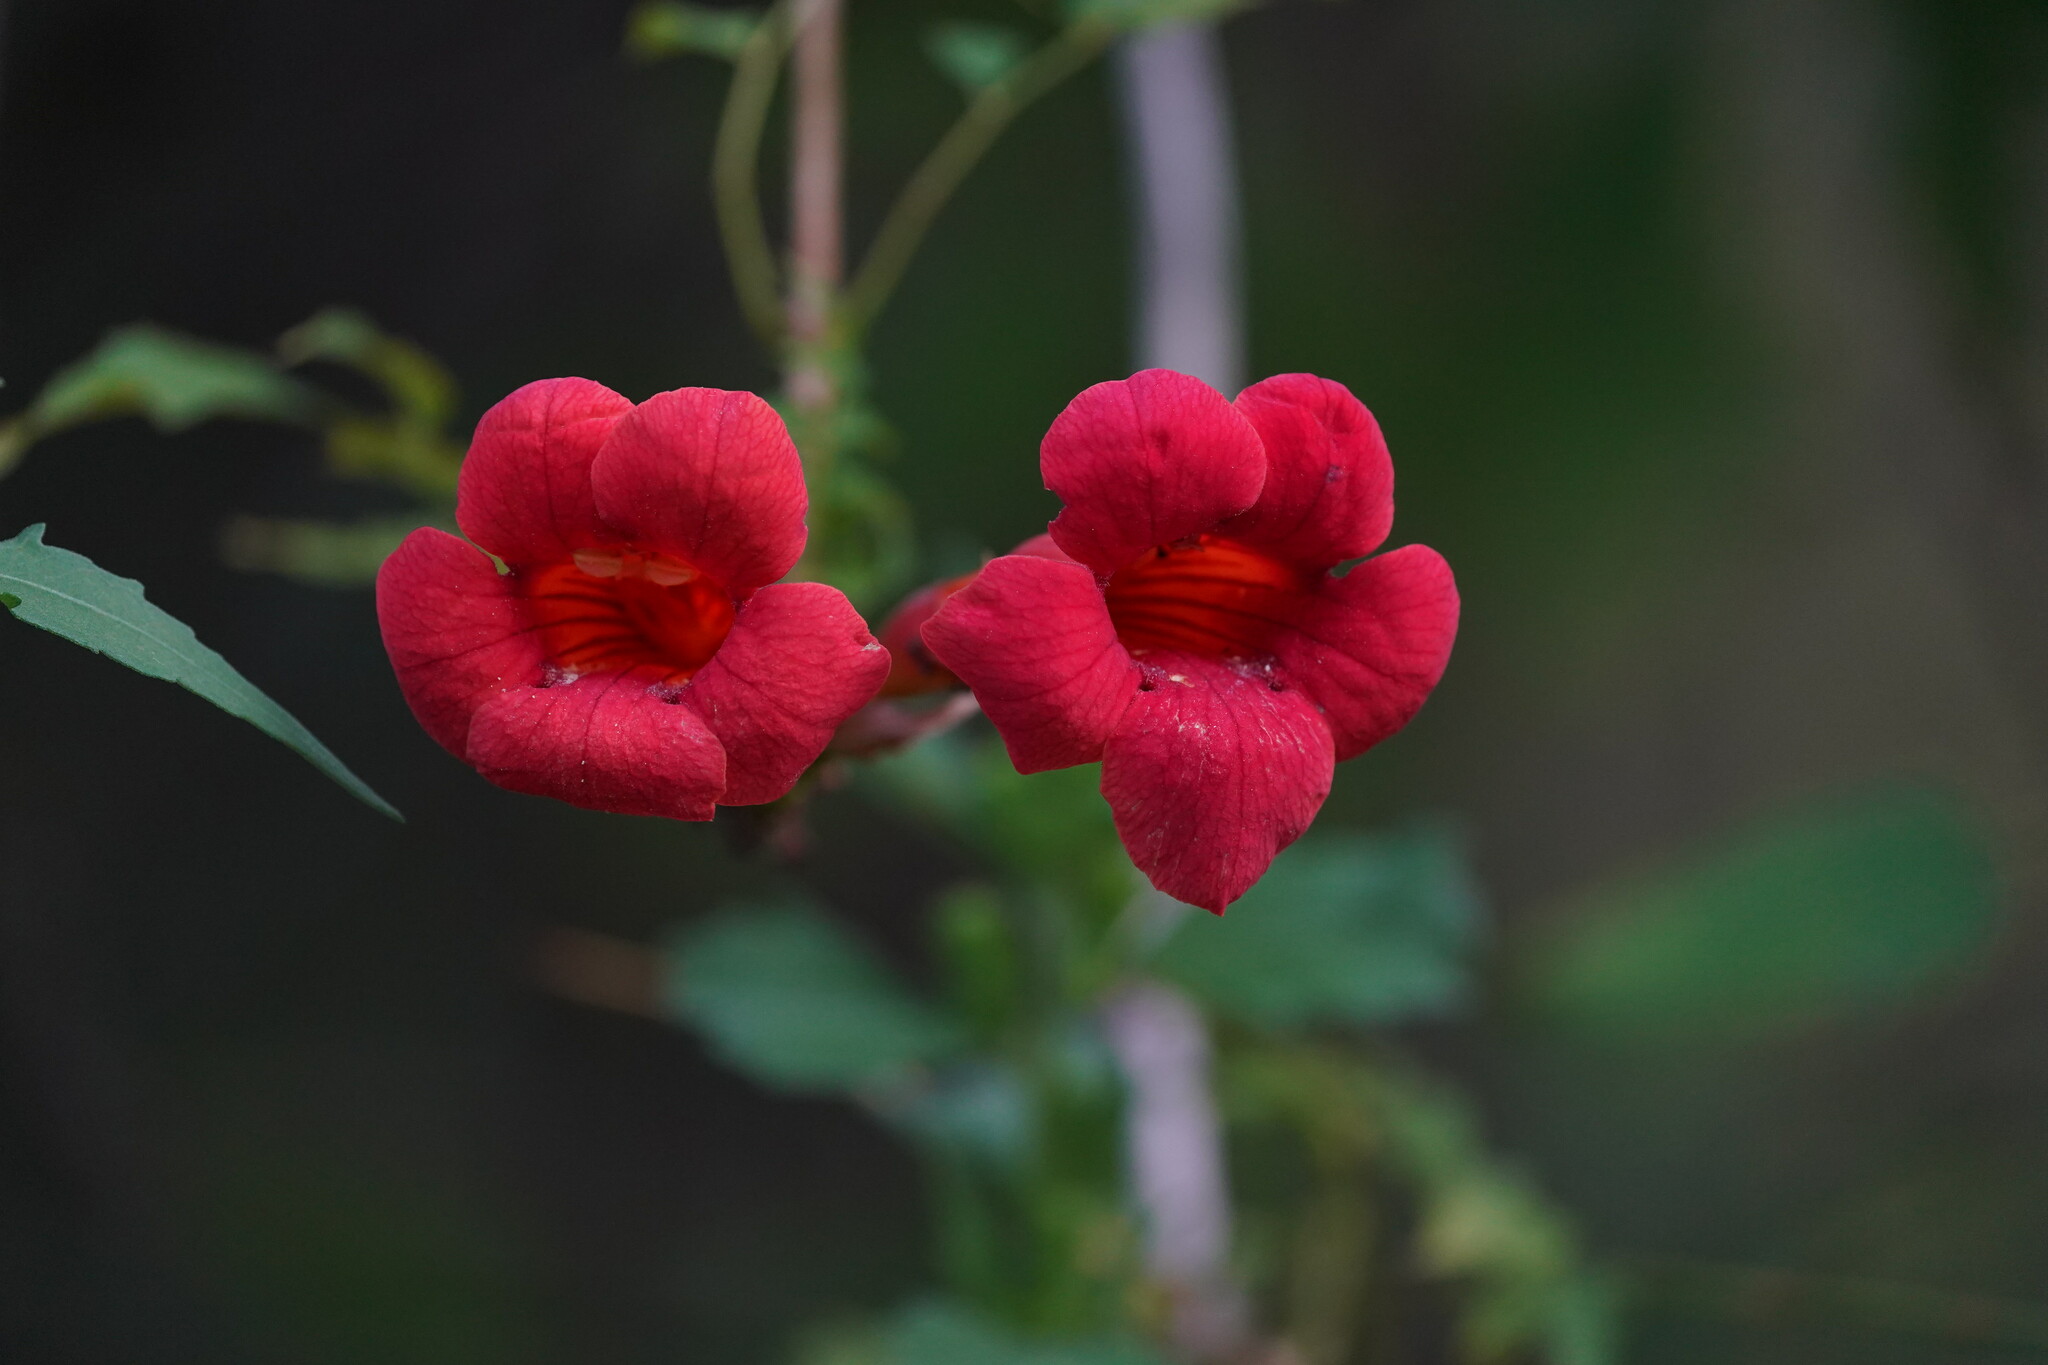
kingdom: Plantae
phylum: Tracheophyta
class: Magnoliopsida
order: Lamiales
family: Bignoniaceae
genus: Campsis
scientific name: Campsis radicans
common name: Trumpet-creeper
